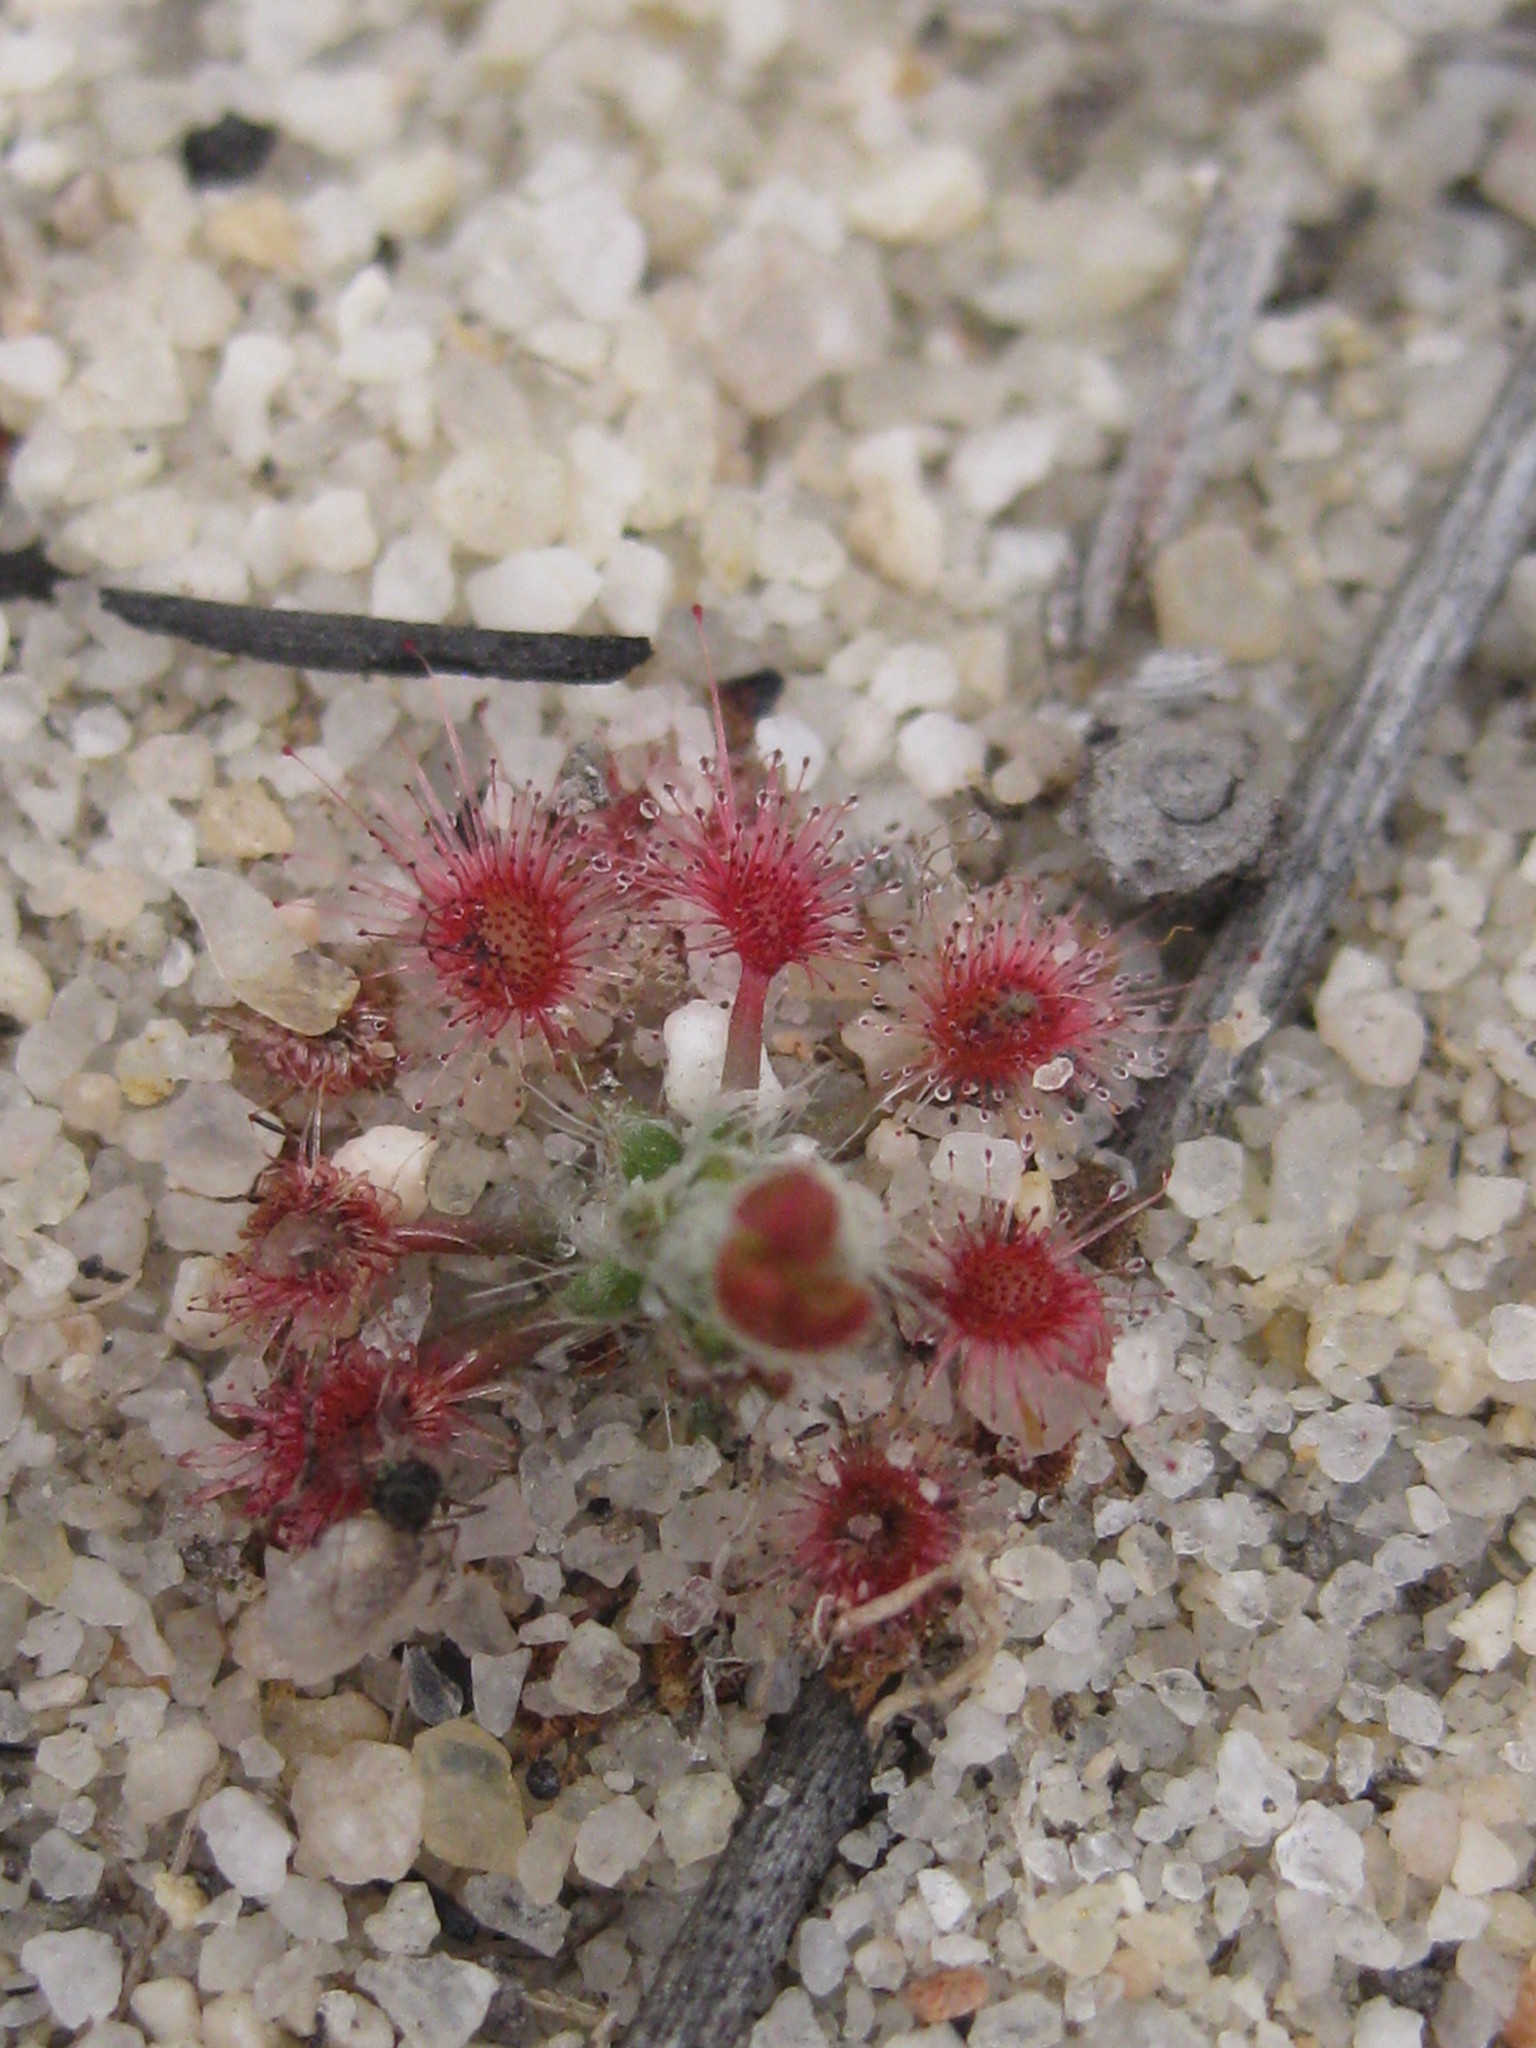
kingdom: Plantae
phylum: Tracheophyta
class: Magnoliopsida
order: Caryophyllales
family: Droseraceae
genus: Drosera
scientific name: Drosera eneabba
